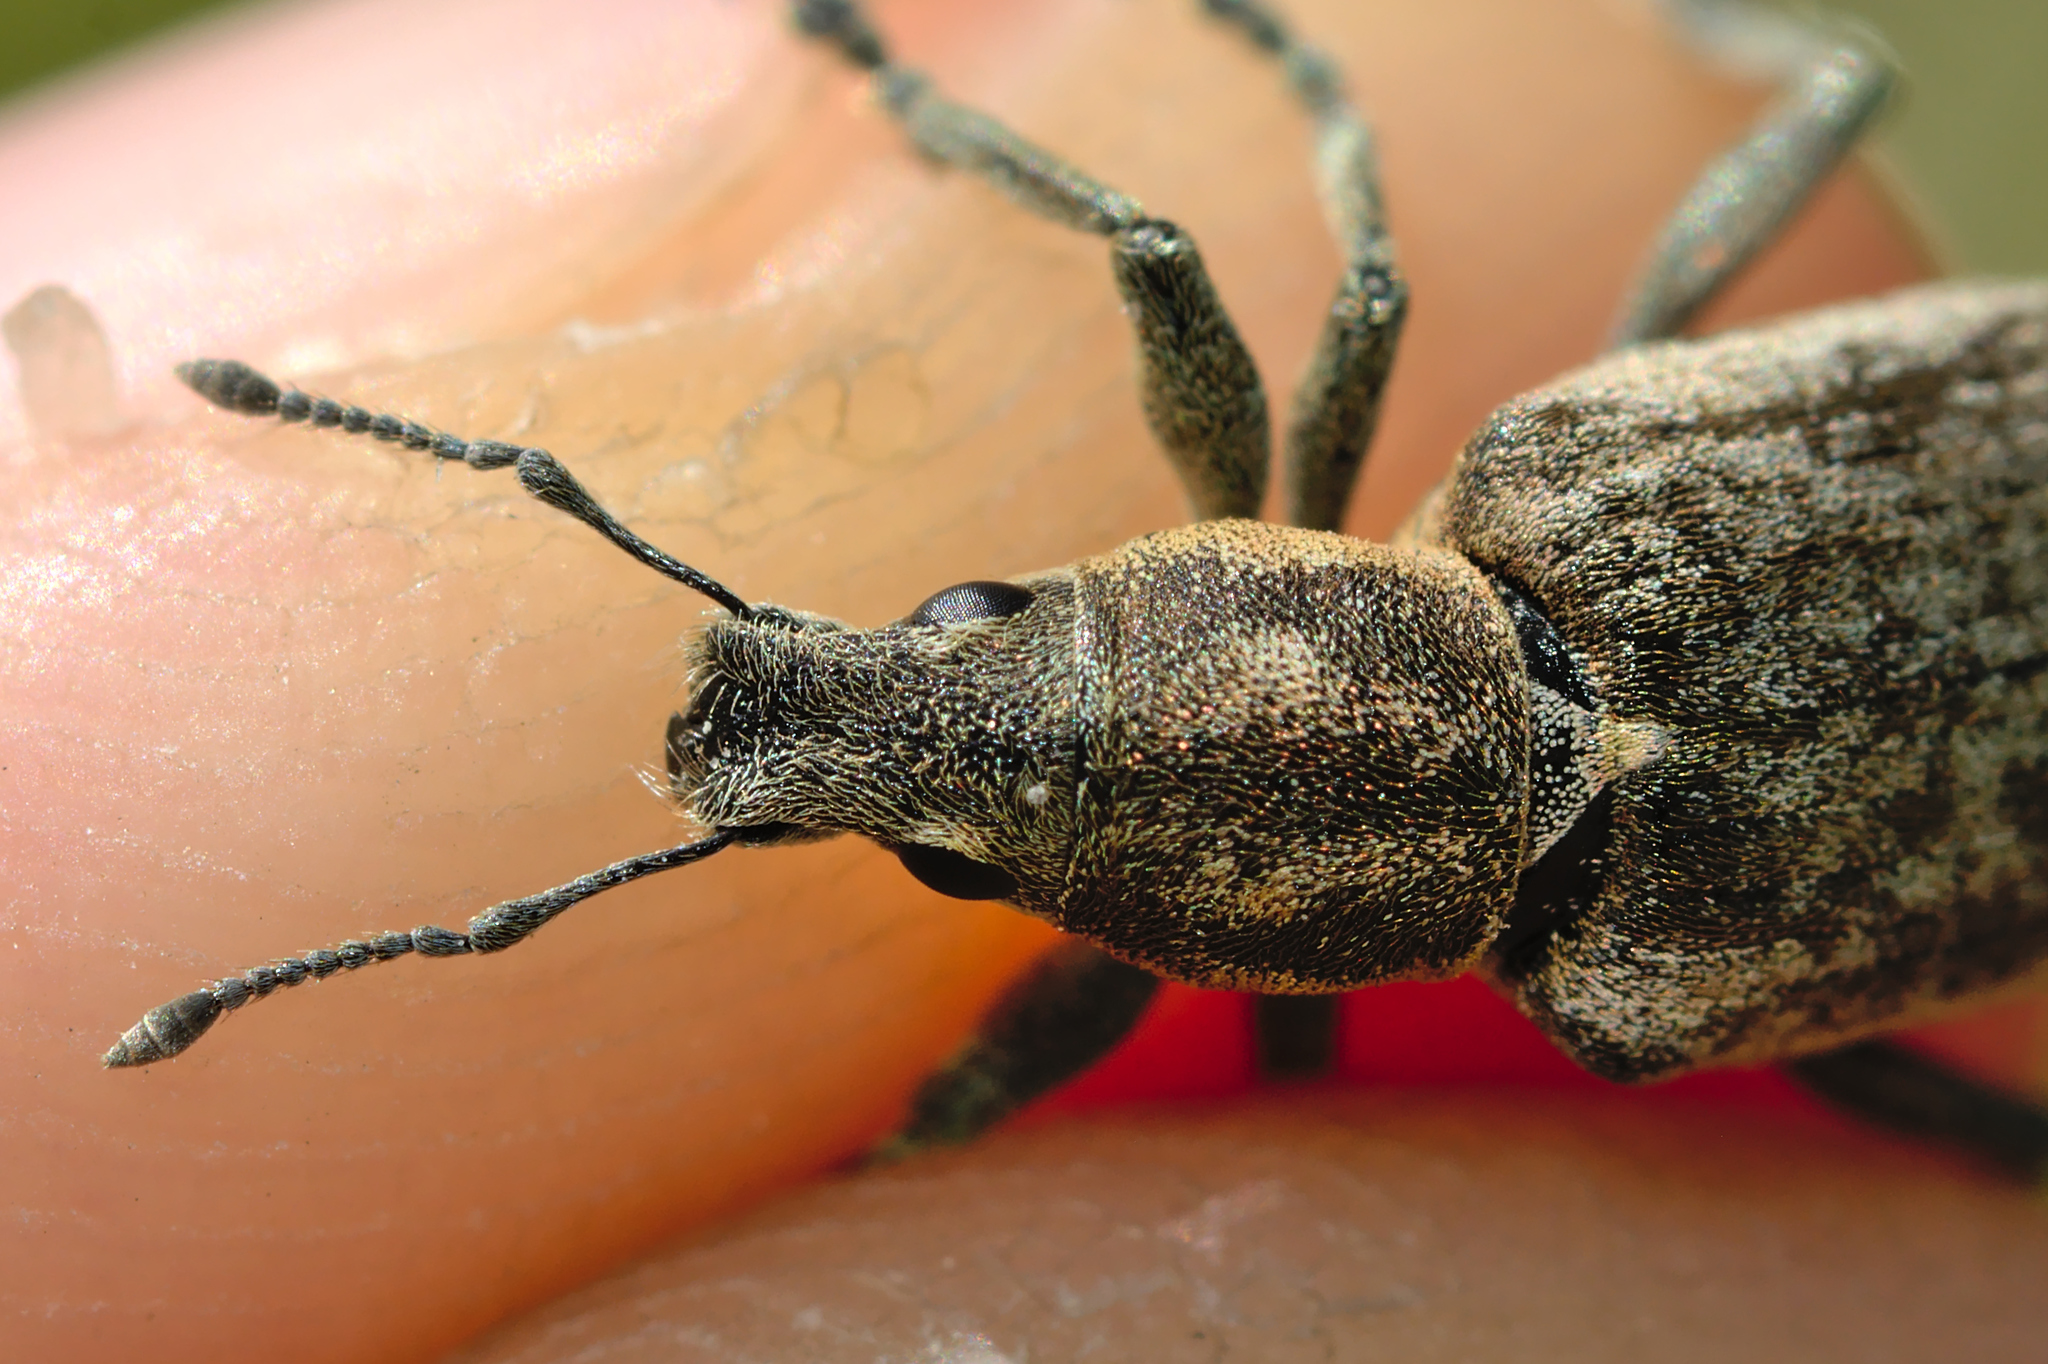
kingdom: Animalia
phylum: Arthropoda
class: Insecta
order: Coleoptera
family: Curculionidae
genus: Tanymecus
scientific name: Tanymecus palliatus
